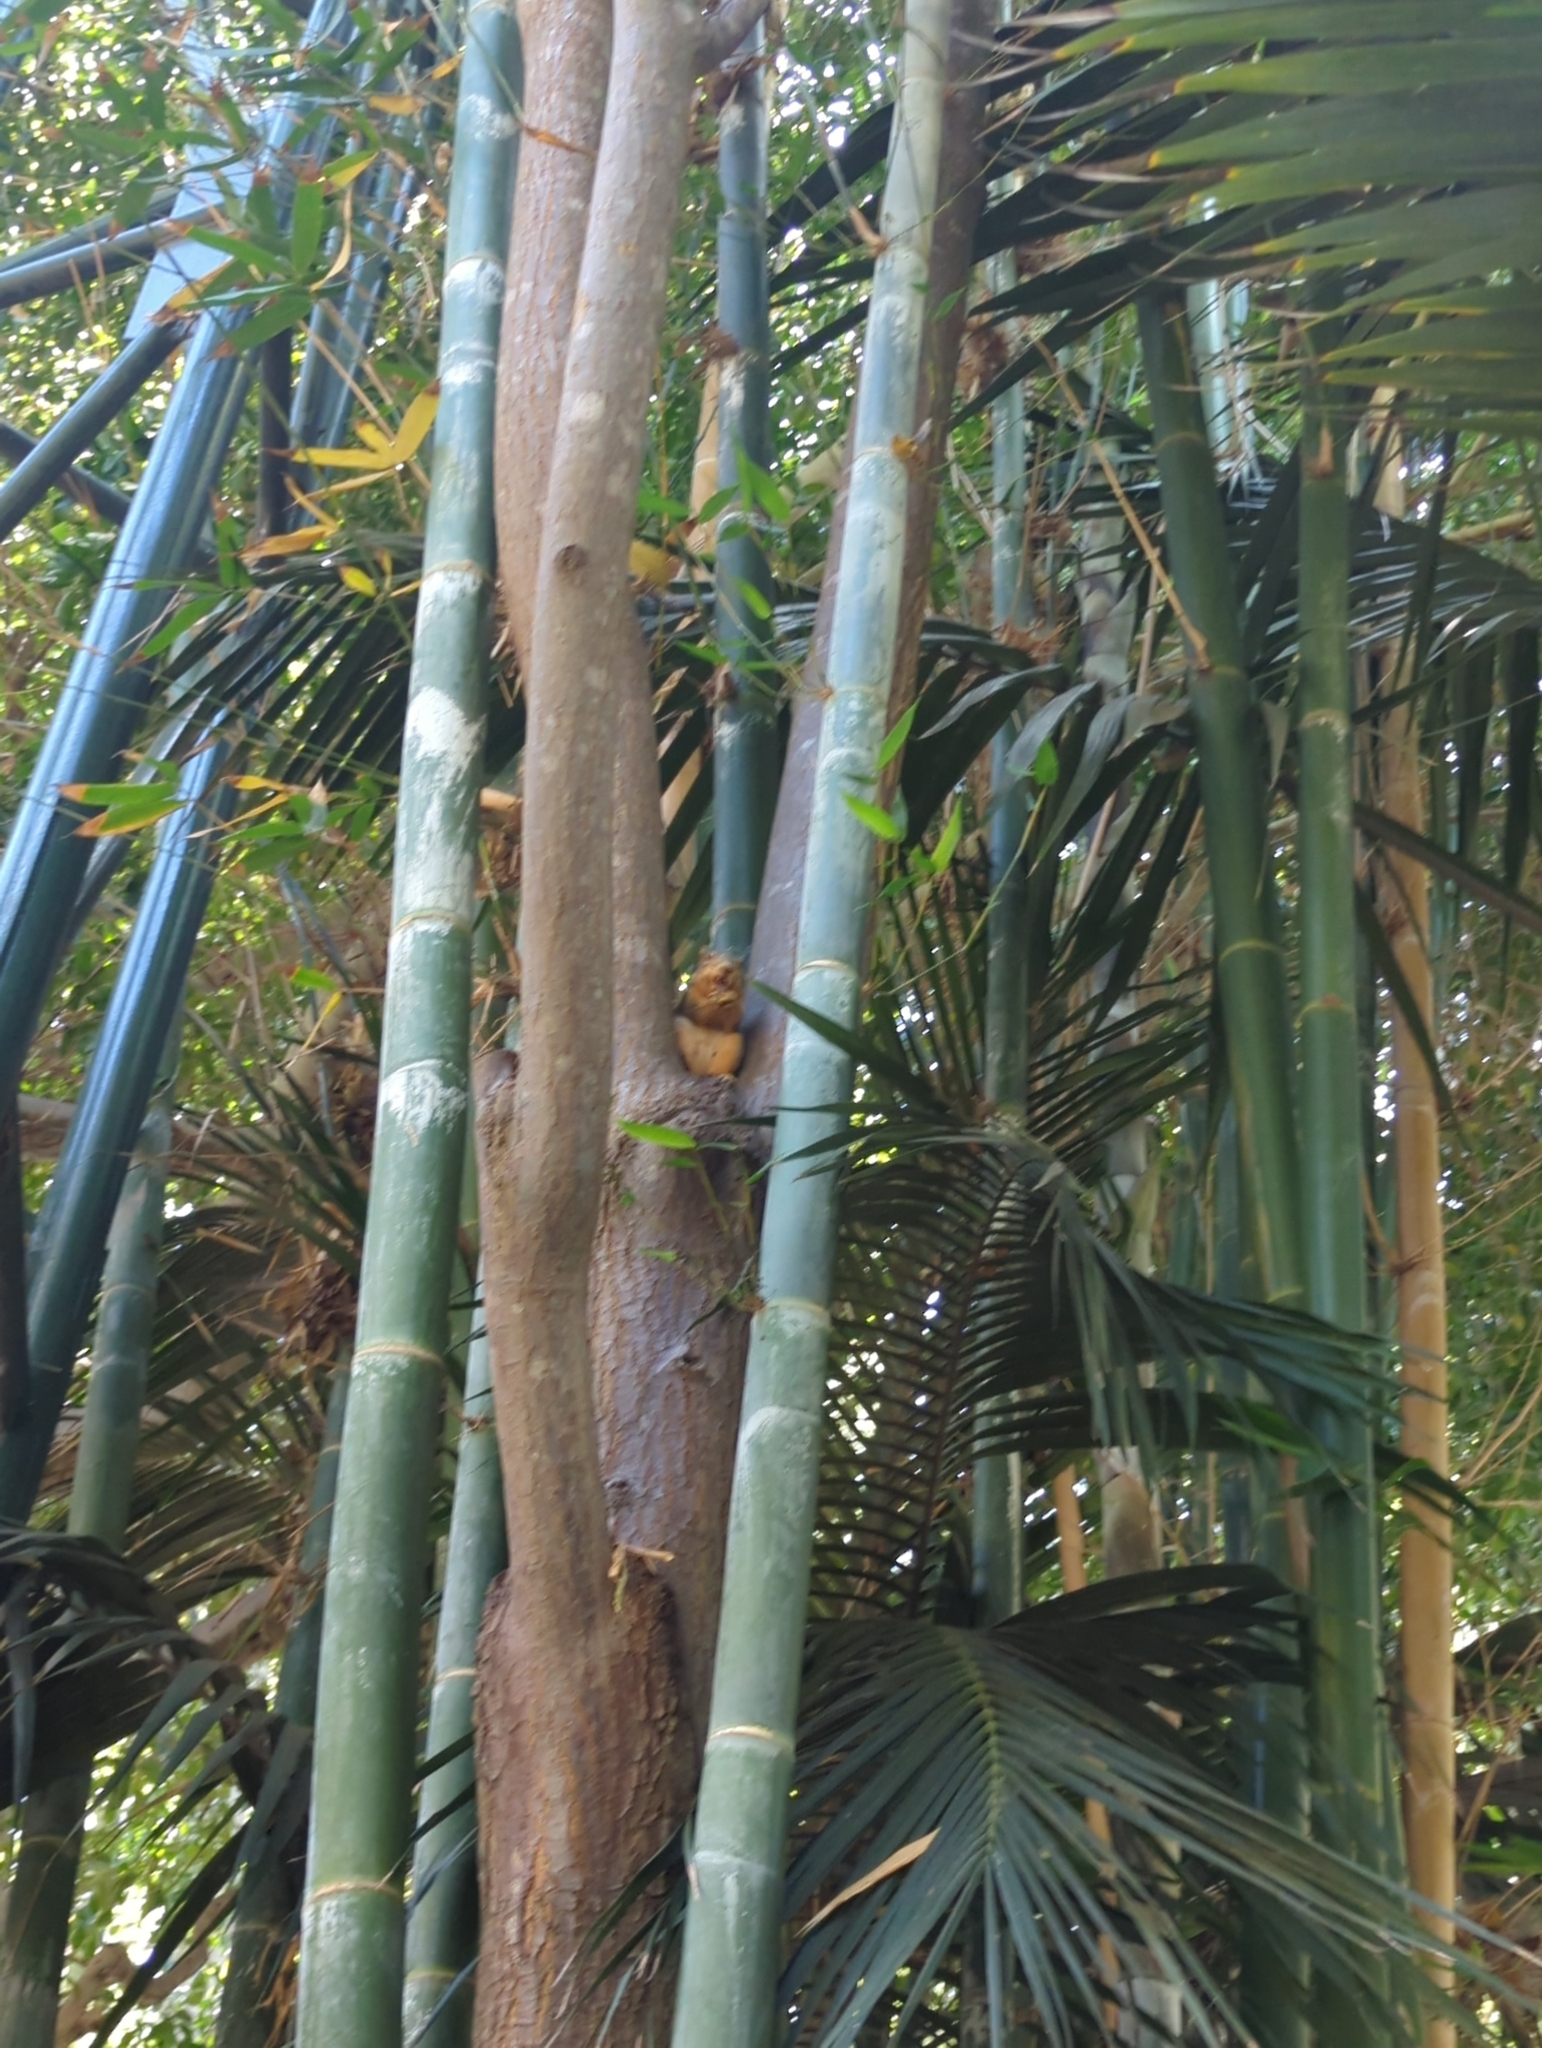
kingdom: Animalia
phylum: Chordata
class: Mammalia
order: Rodentia
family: Sciuridae
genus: Sciurus
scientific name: Sciurus niger
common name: Fox squirrel
